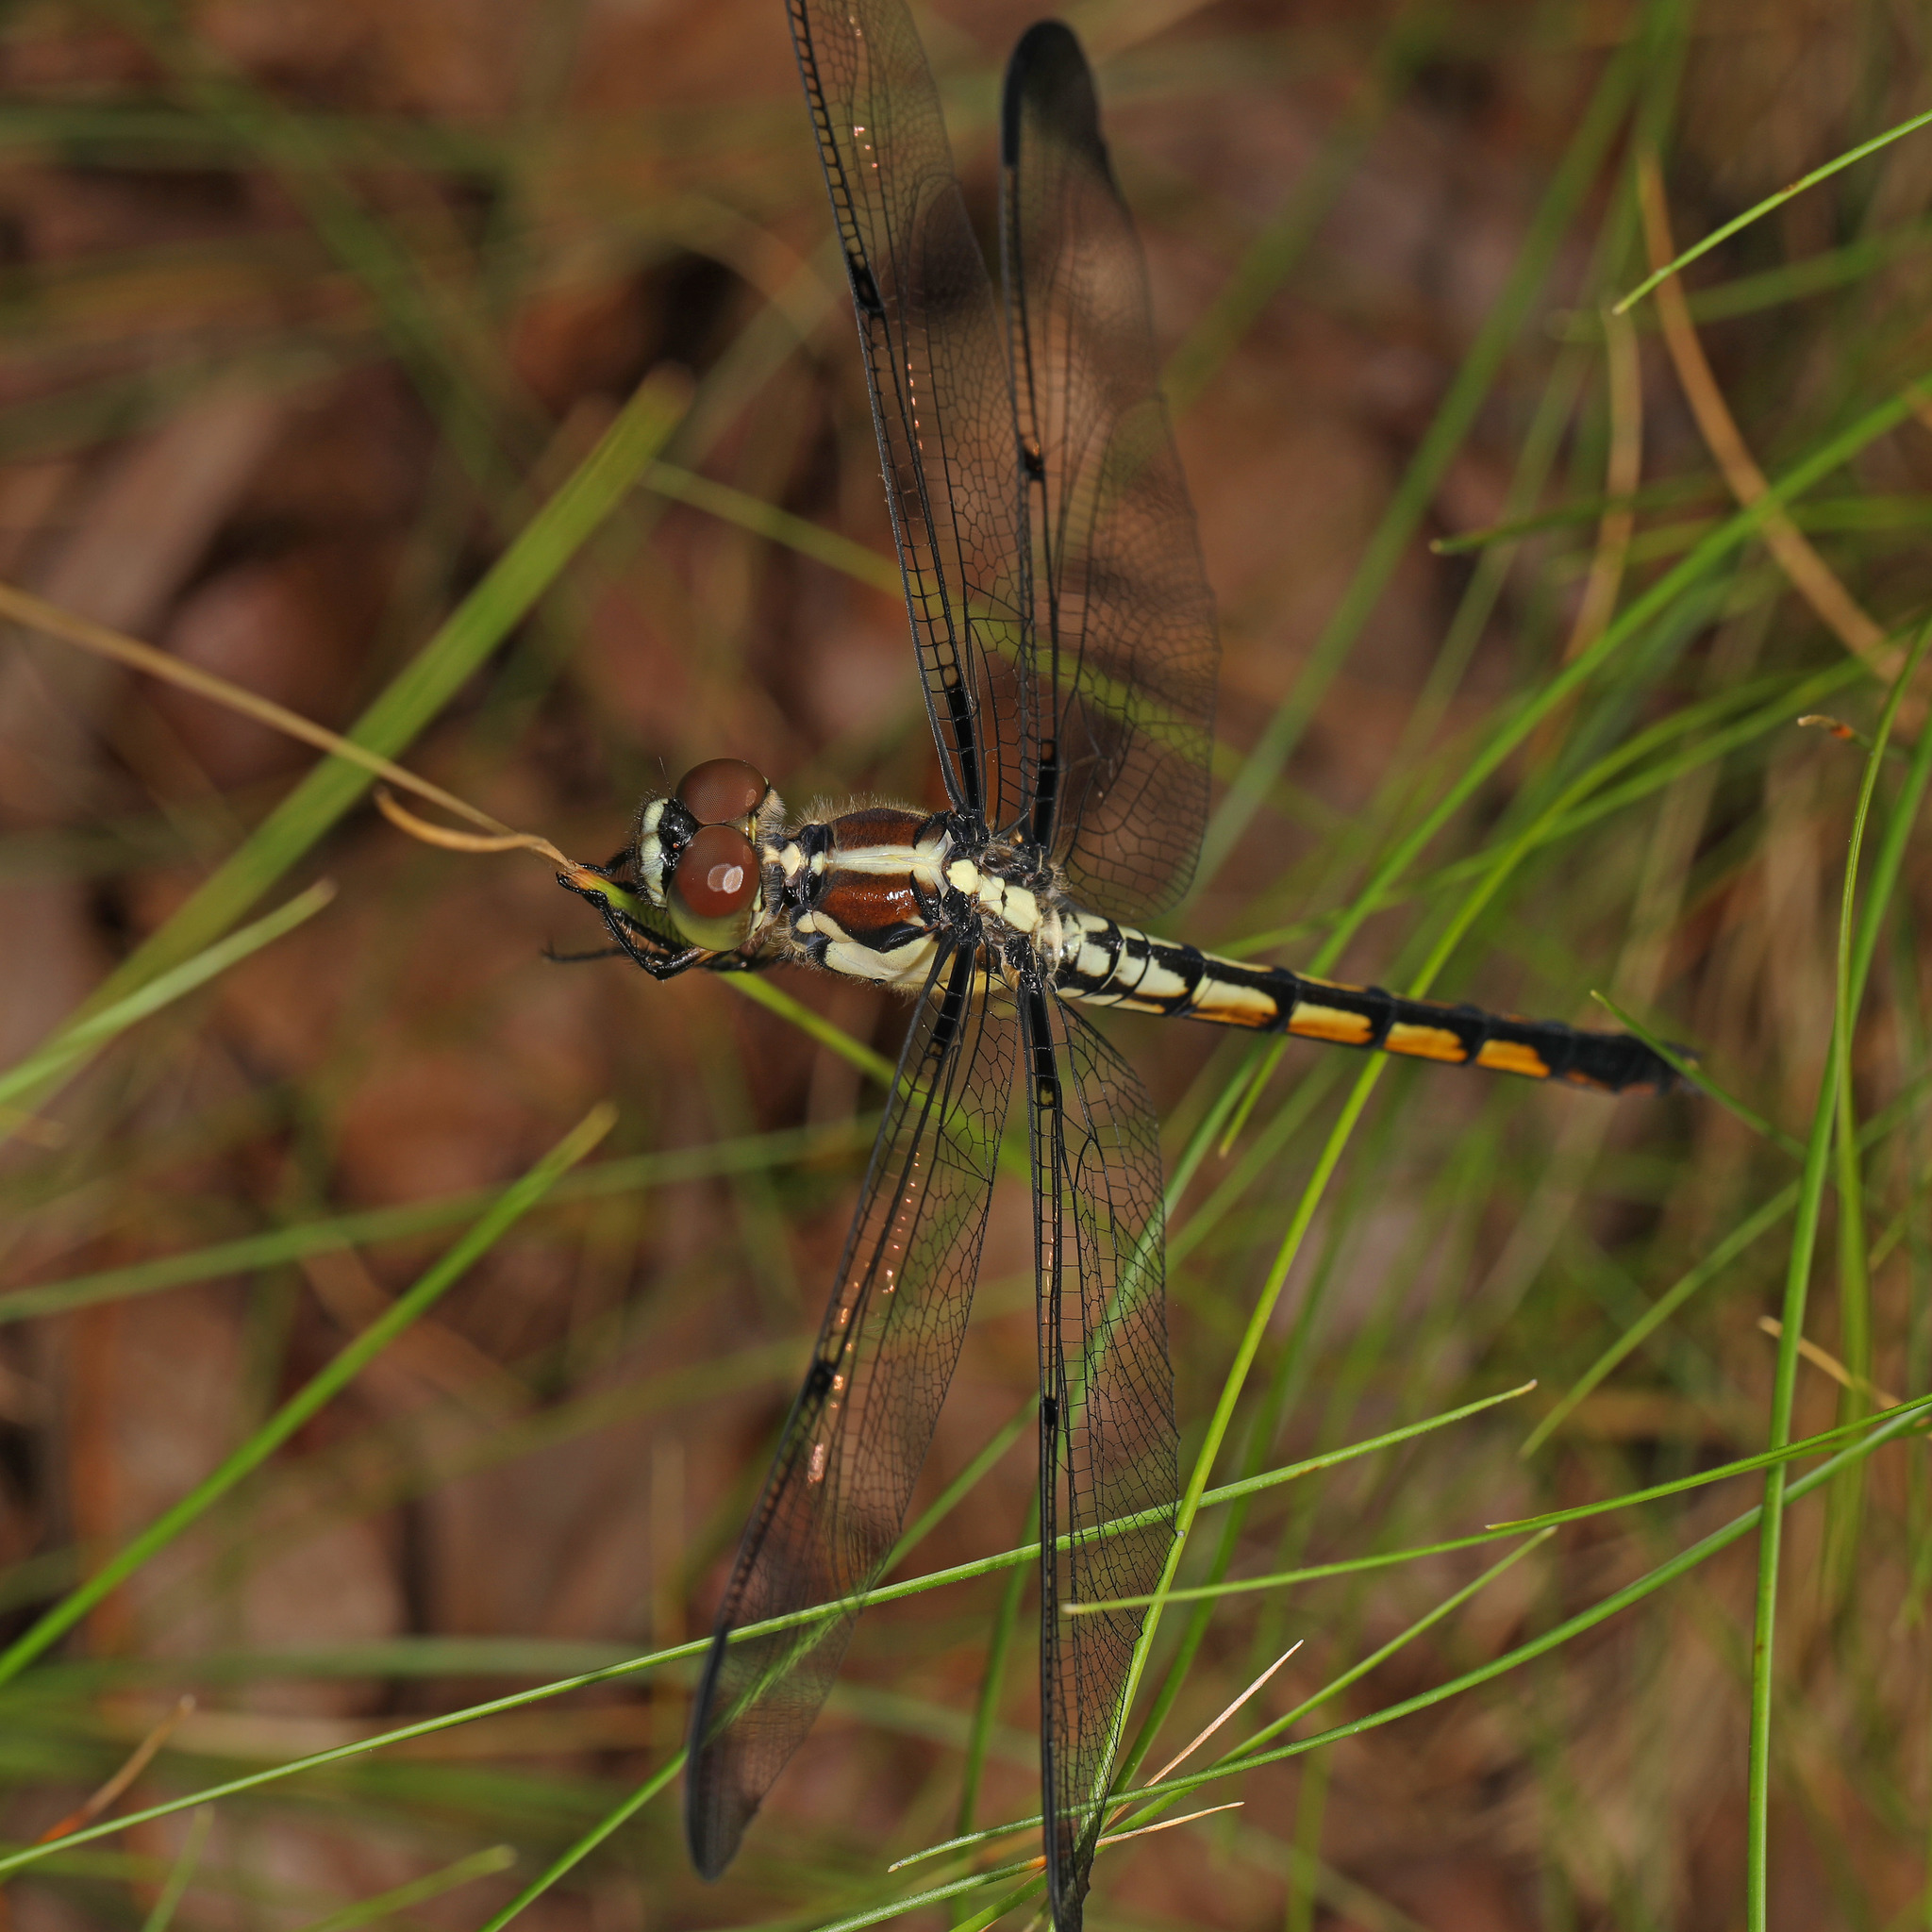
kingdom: Animalia
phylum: Arthropoda
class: Insecta
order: Odonata
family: Libellulidae
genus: Libellula
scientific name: Libellula vibrans
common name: Great blue skimmer
